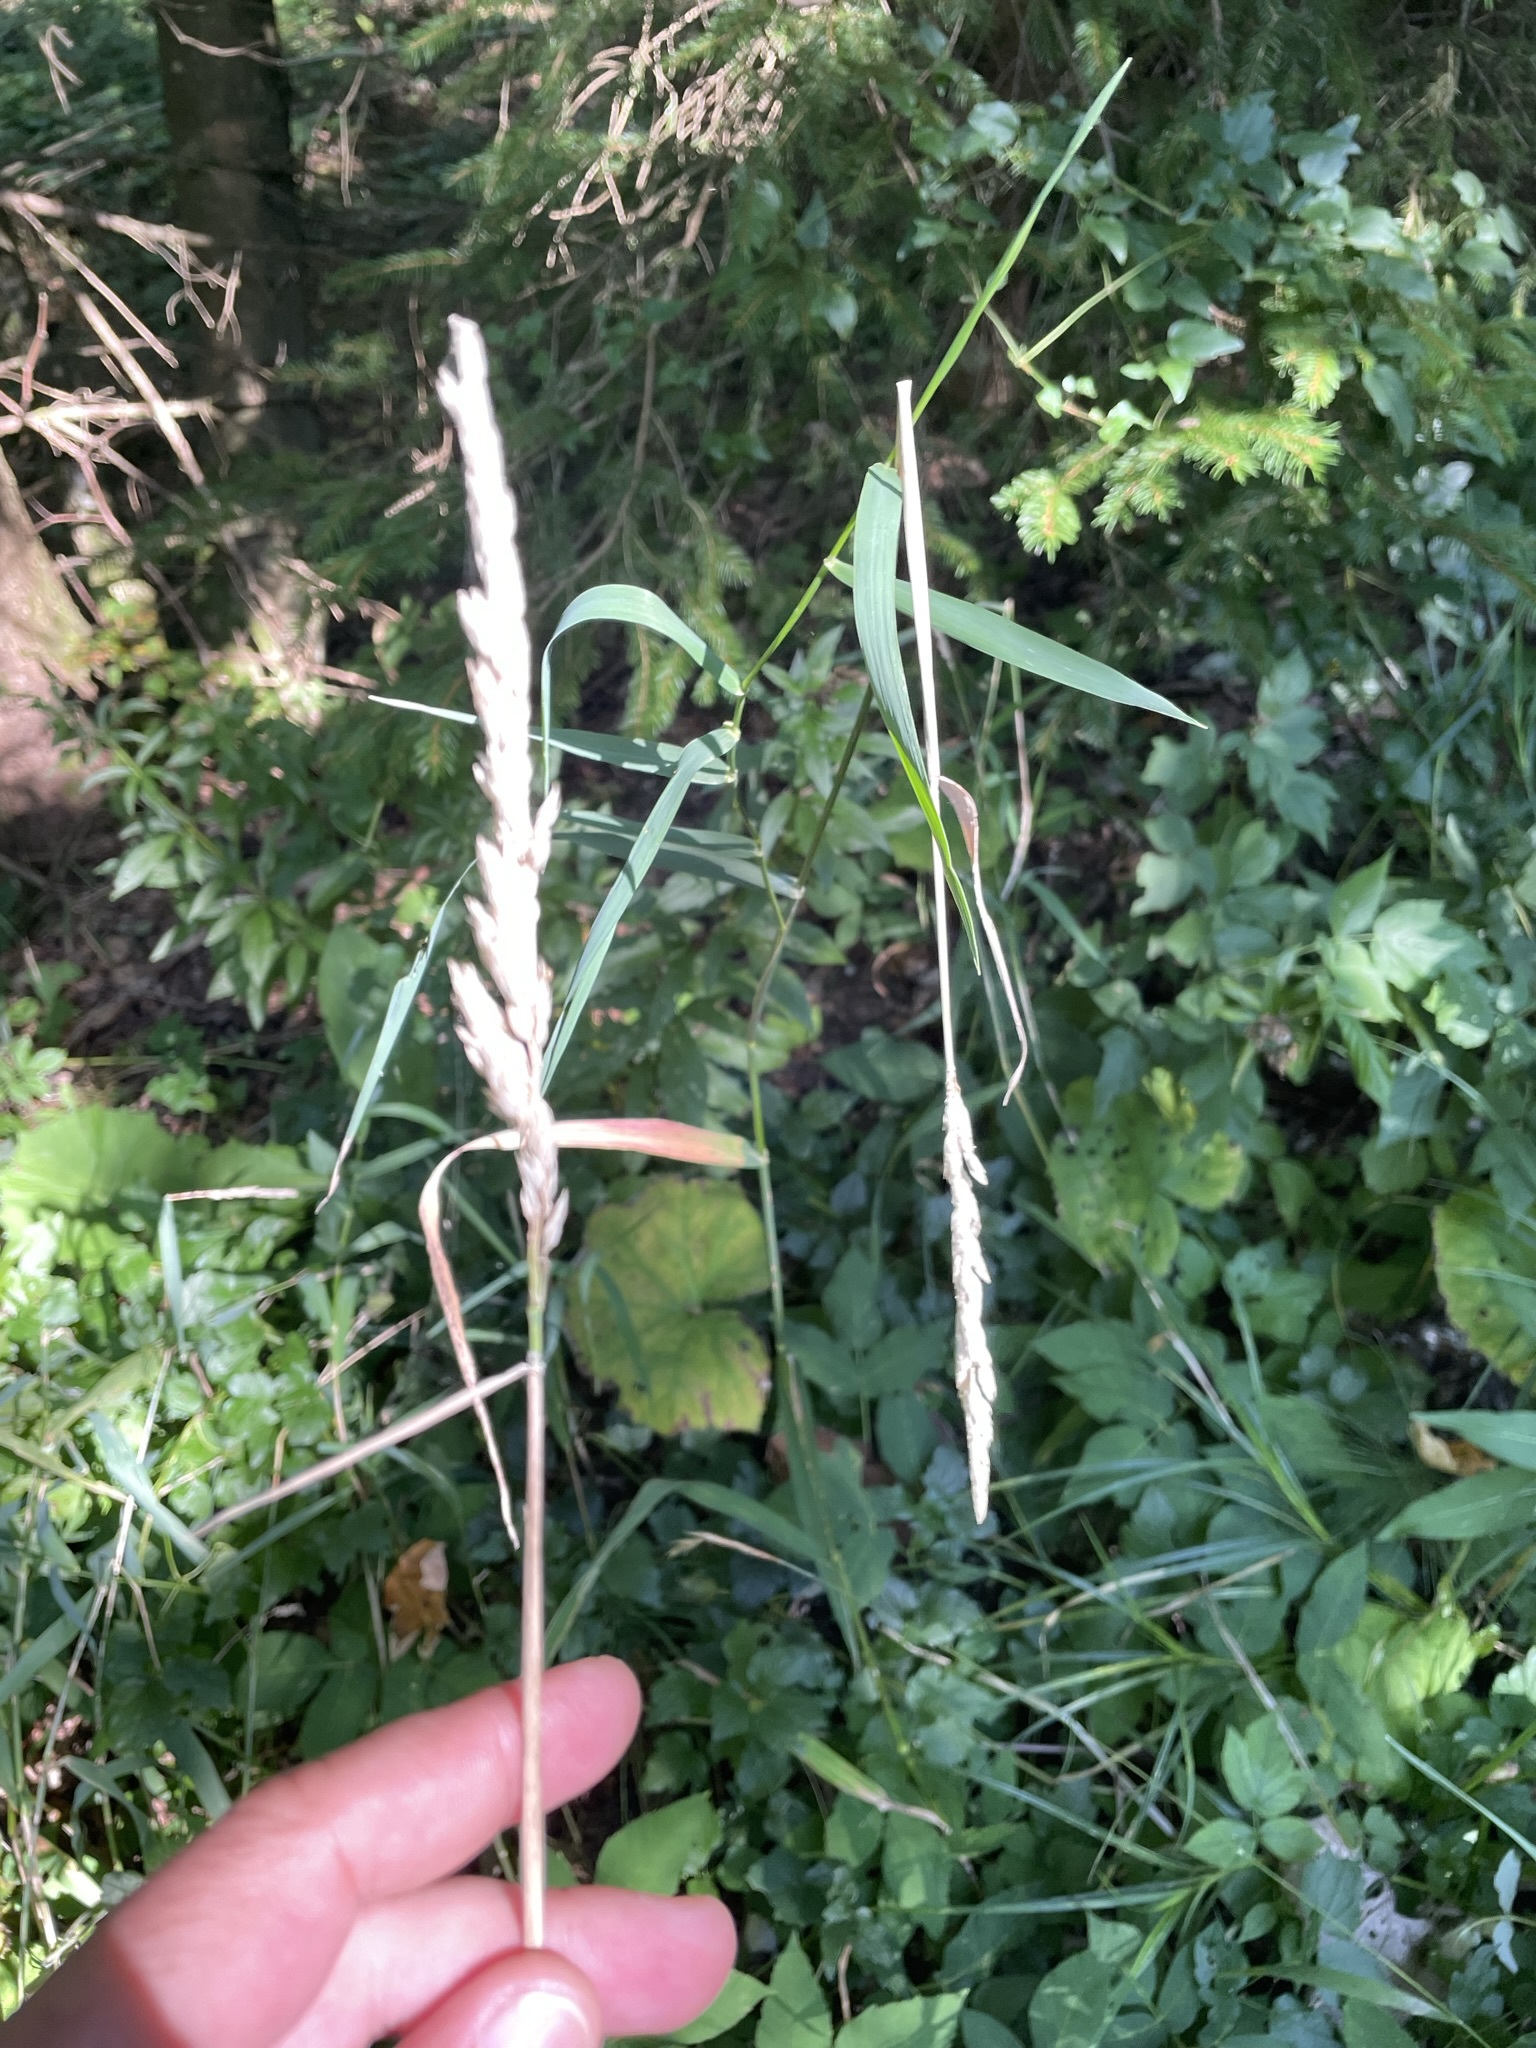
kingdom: Plantae
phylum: Tracheophyta
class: Liliopsida
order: Poales
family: Poaceae
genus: Phalaris
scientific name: Phalaris arundinacea
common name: Reed canary-grass
